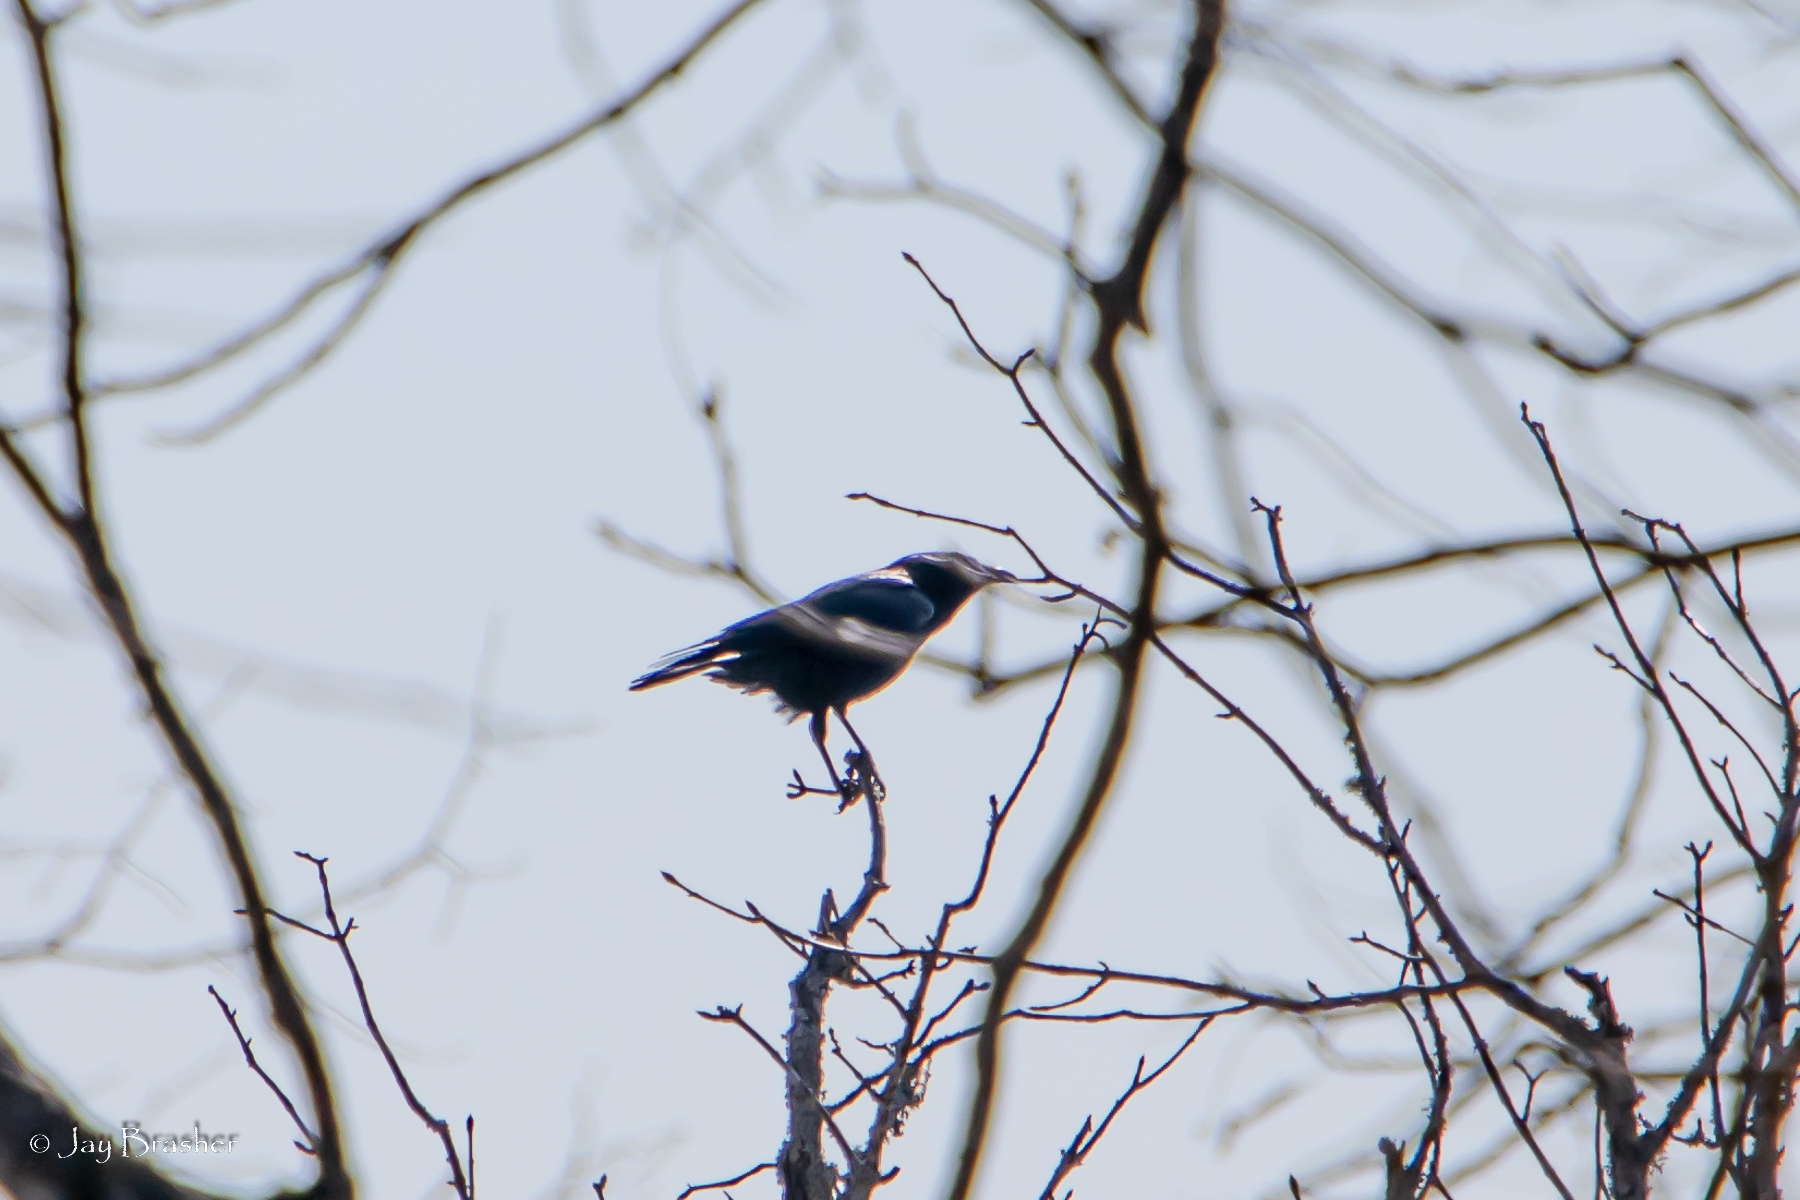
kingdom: Animalia
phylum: Chordata
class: Aves
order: Passeriformes
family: Corvidae
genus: Corvus
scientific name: Corvus brachyrhynchos
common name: American crow
